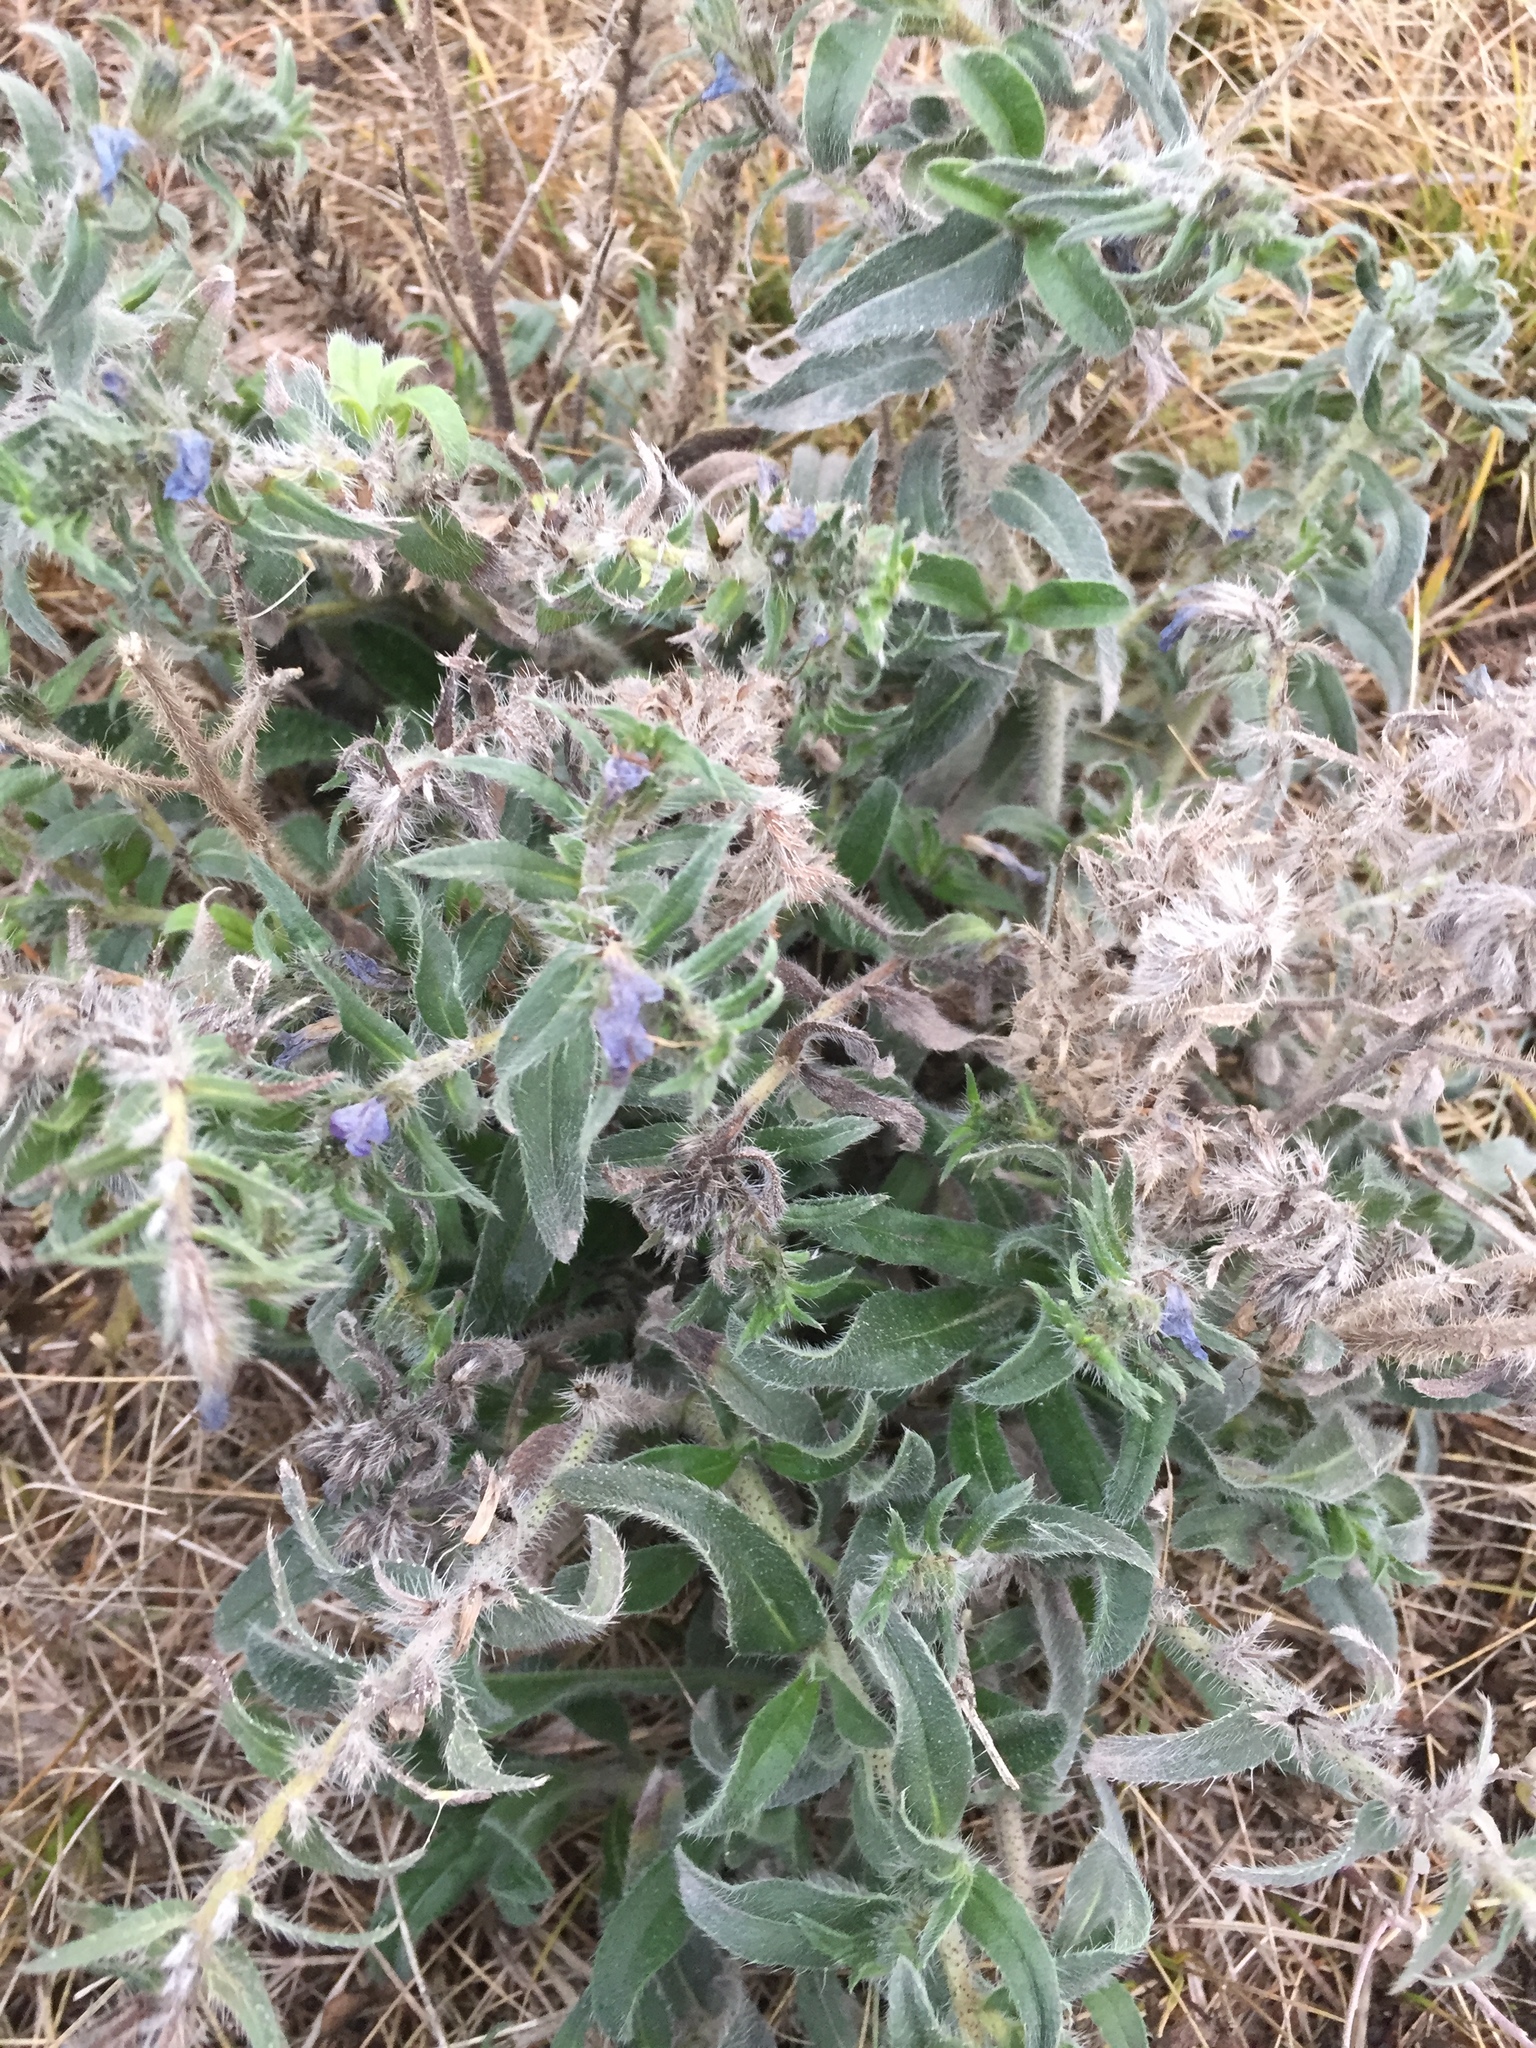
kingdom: Plantae
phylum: Tracheophyta
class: Magnoliopsida
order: Boraginales
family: Boraginaceae
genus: Echium
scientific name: Echium vulgare
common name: Common viper's bugloss
